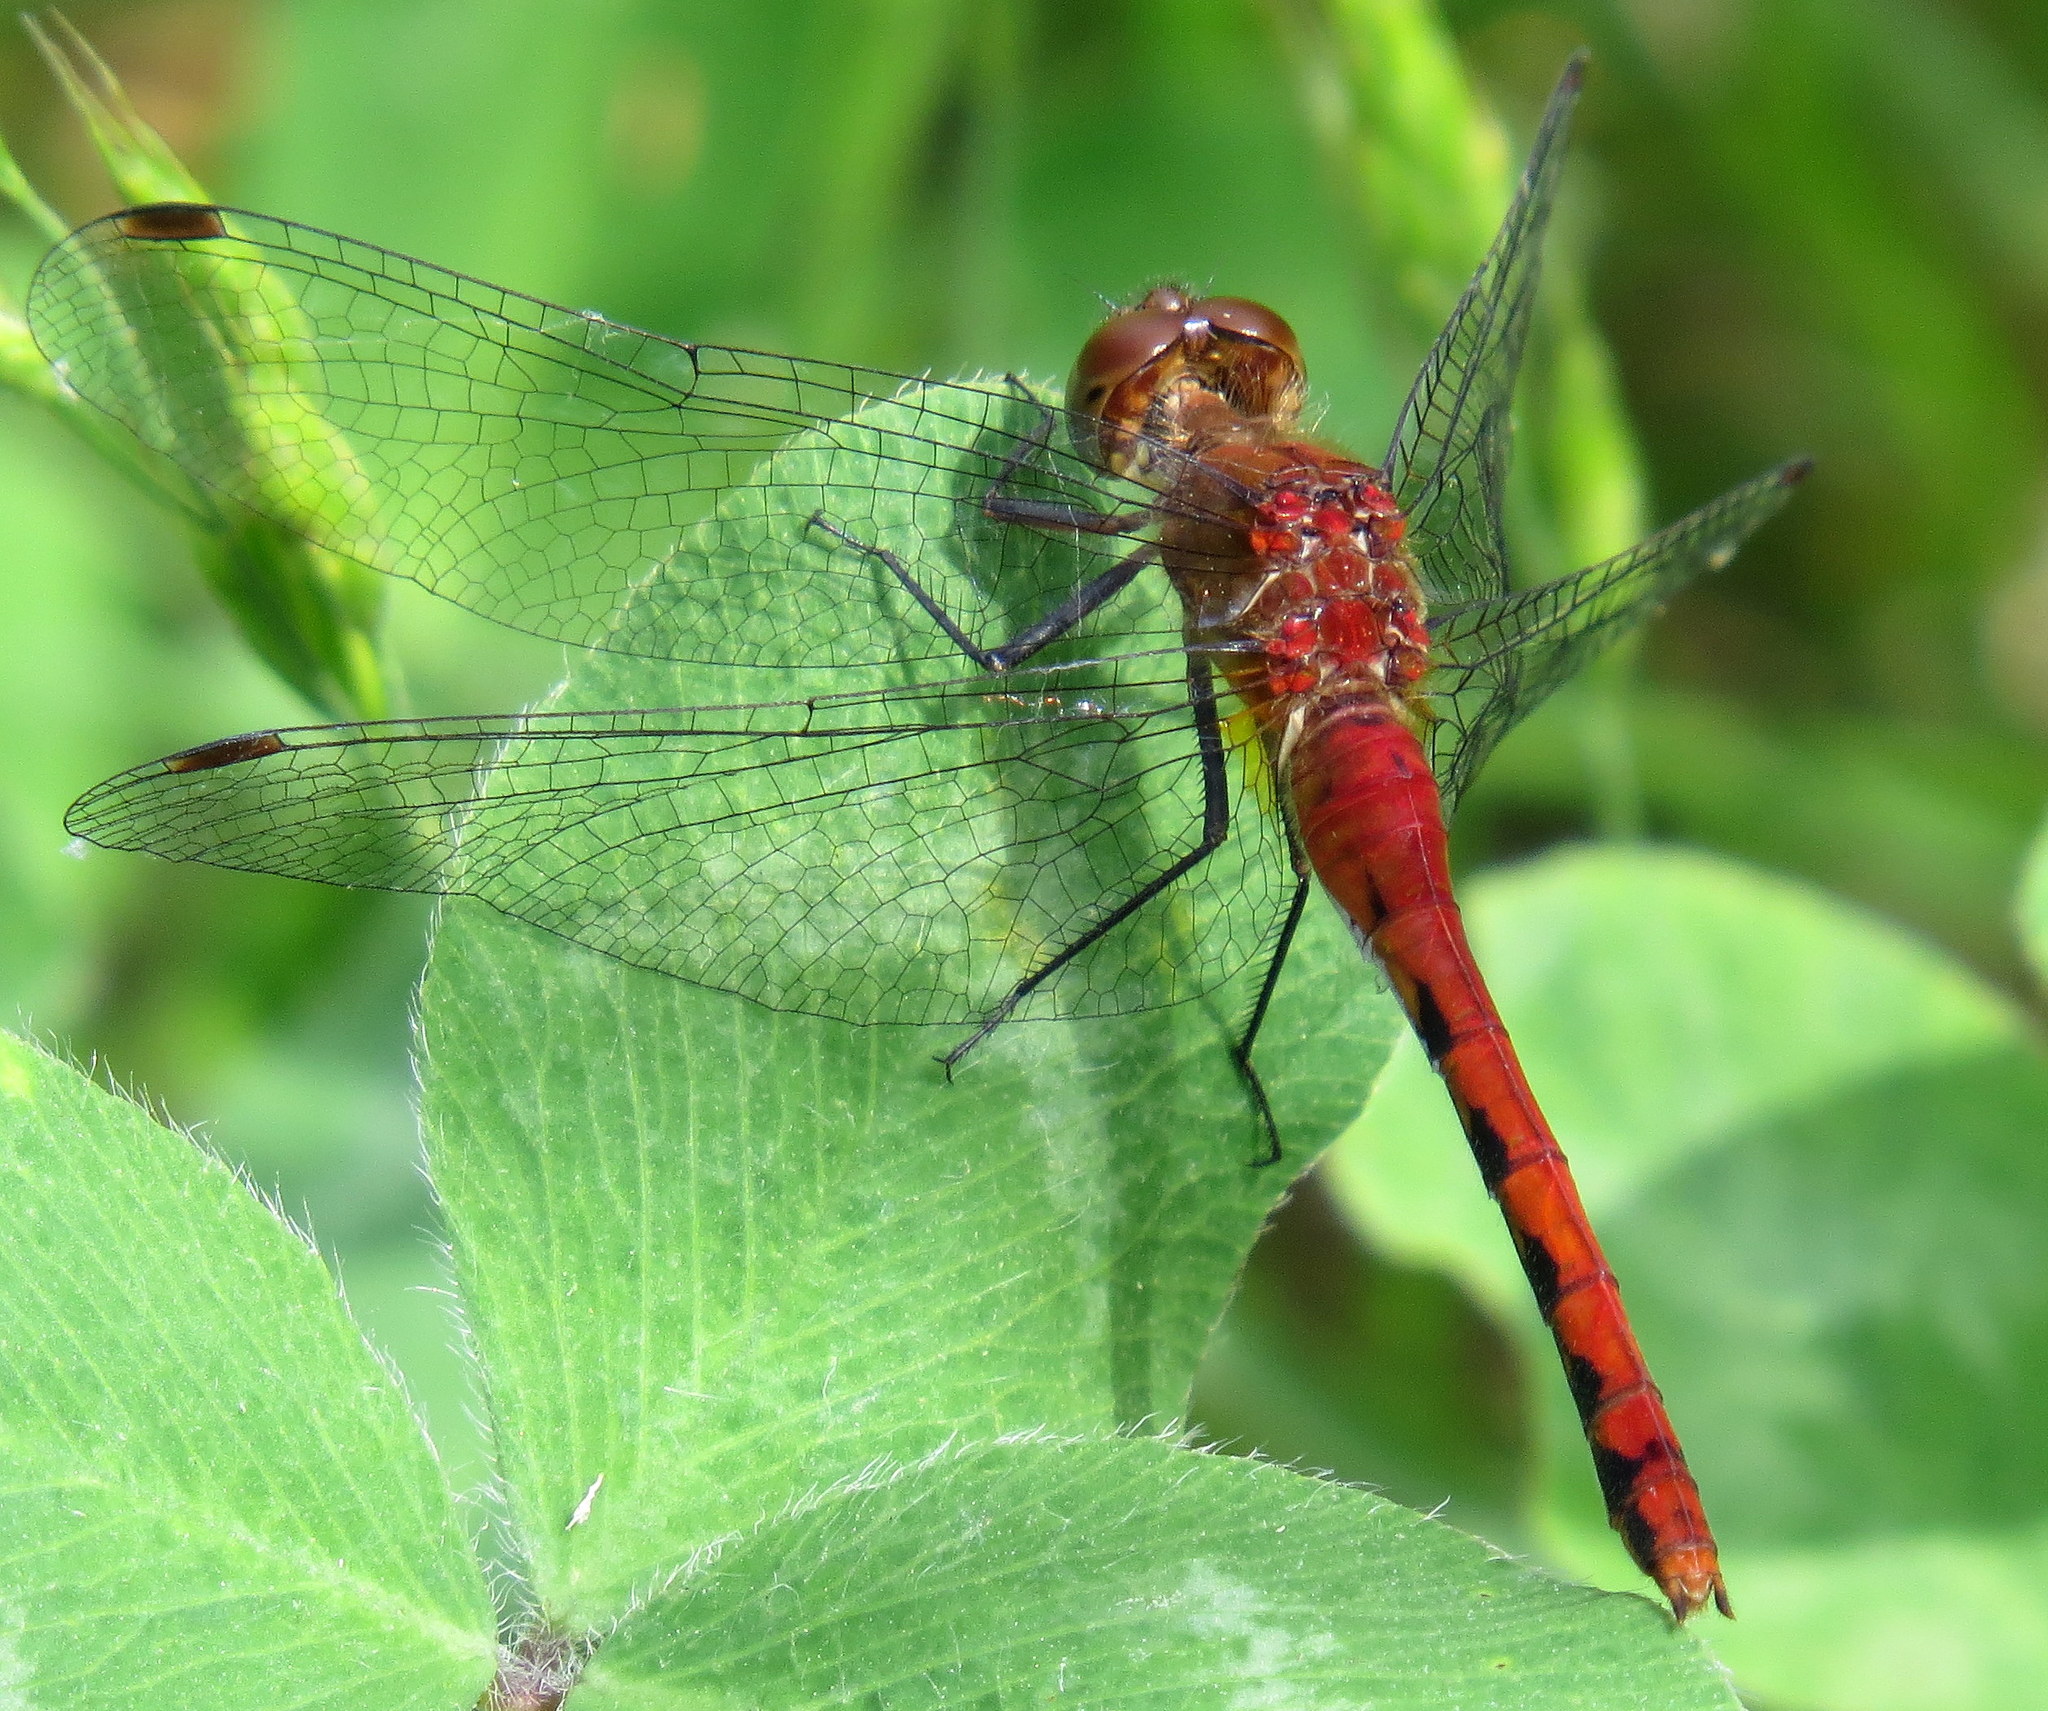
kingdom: Animalia
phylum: Arthropoda
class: Insecta
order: Odonata
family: Libellulidae
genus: Sympetrum
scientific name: Sympetrum internum
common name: Cherry-faced meadowhawk
